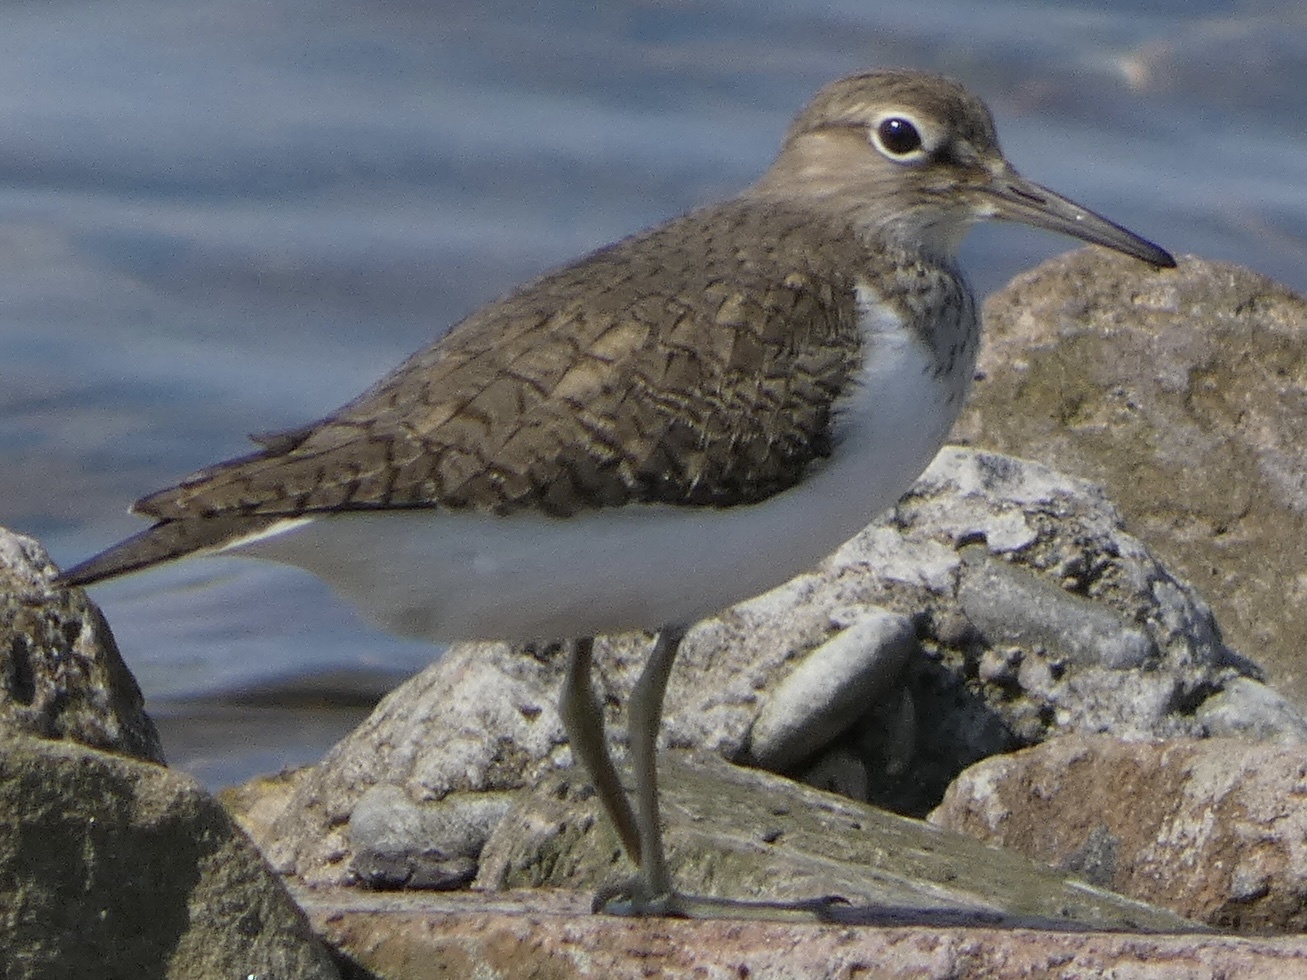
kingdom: Animalia
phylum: Chordata
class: Aves
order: Charadriiformes
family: Scolopacidae
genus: Actitis
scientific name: Actitis hypoleucos
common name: Common sandpiper
